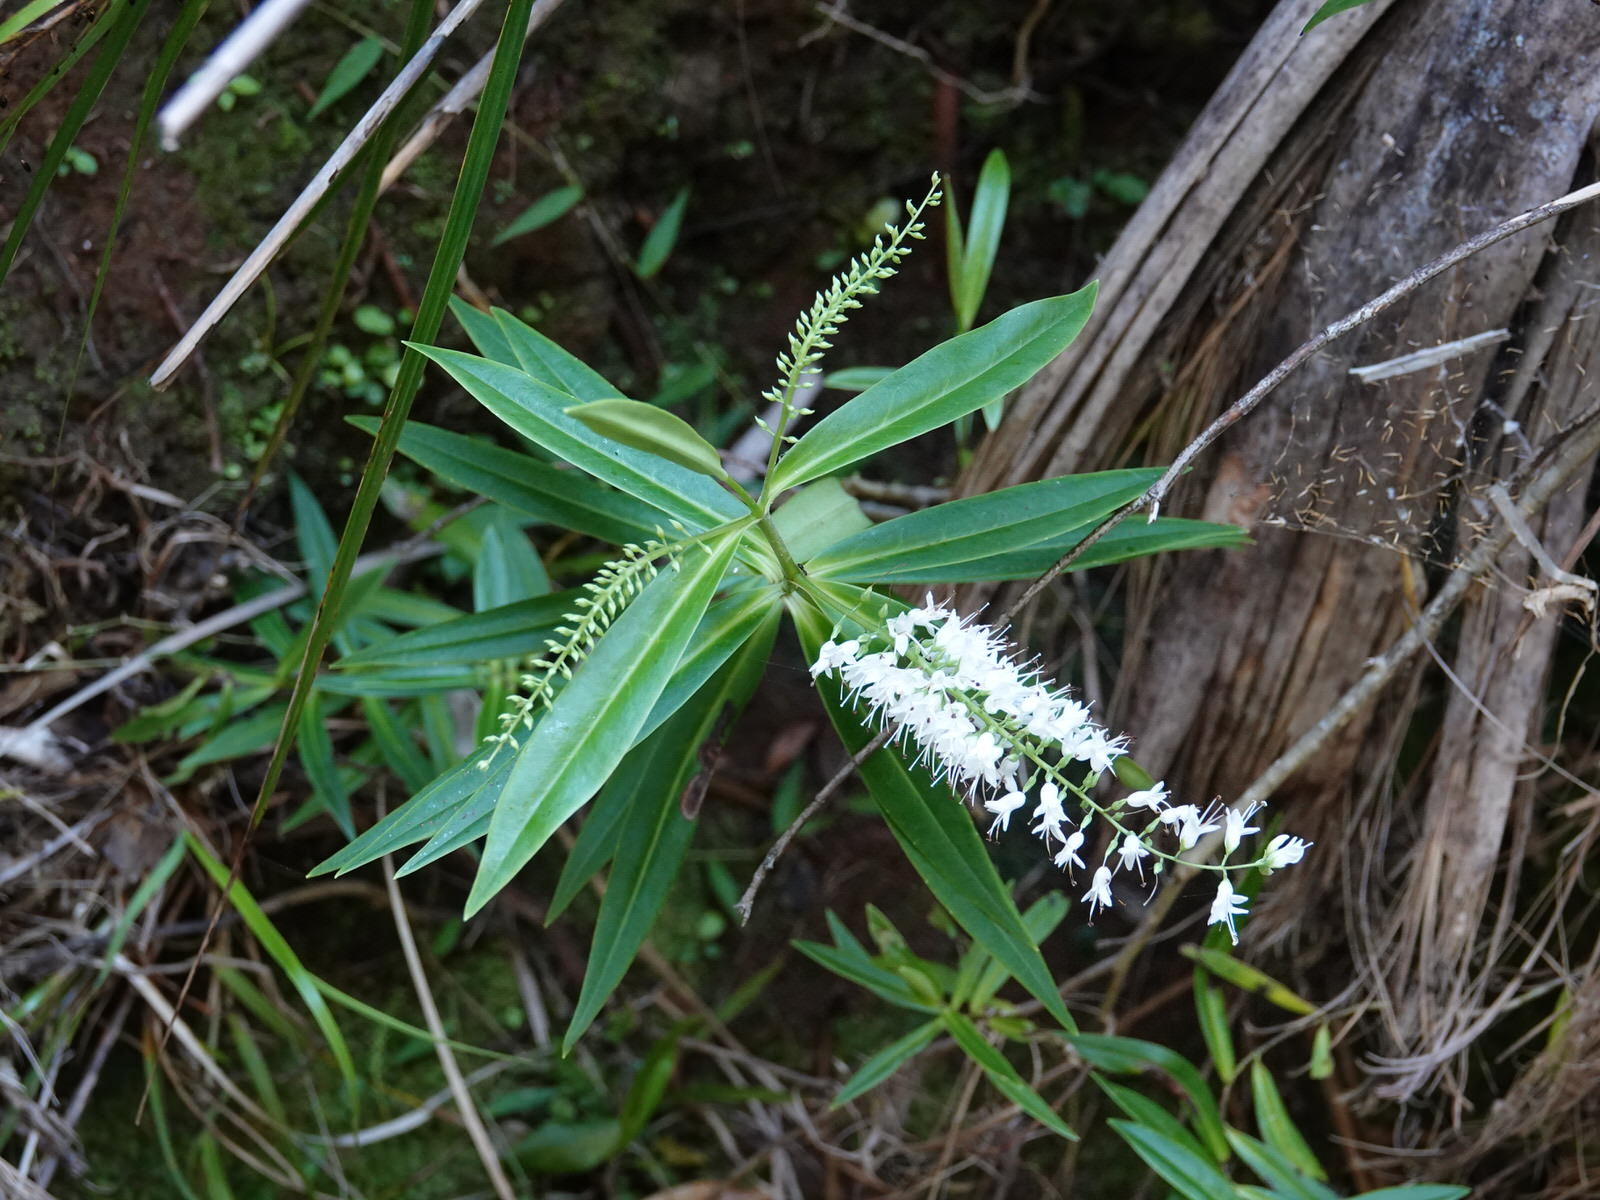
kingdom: Plantae
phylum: Tracheophyta
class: Magnoliopsida
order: Lamiales
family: Plantaginaceae
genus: Veronica
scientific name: Veronica macrocarpa
